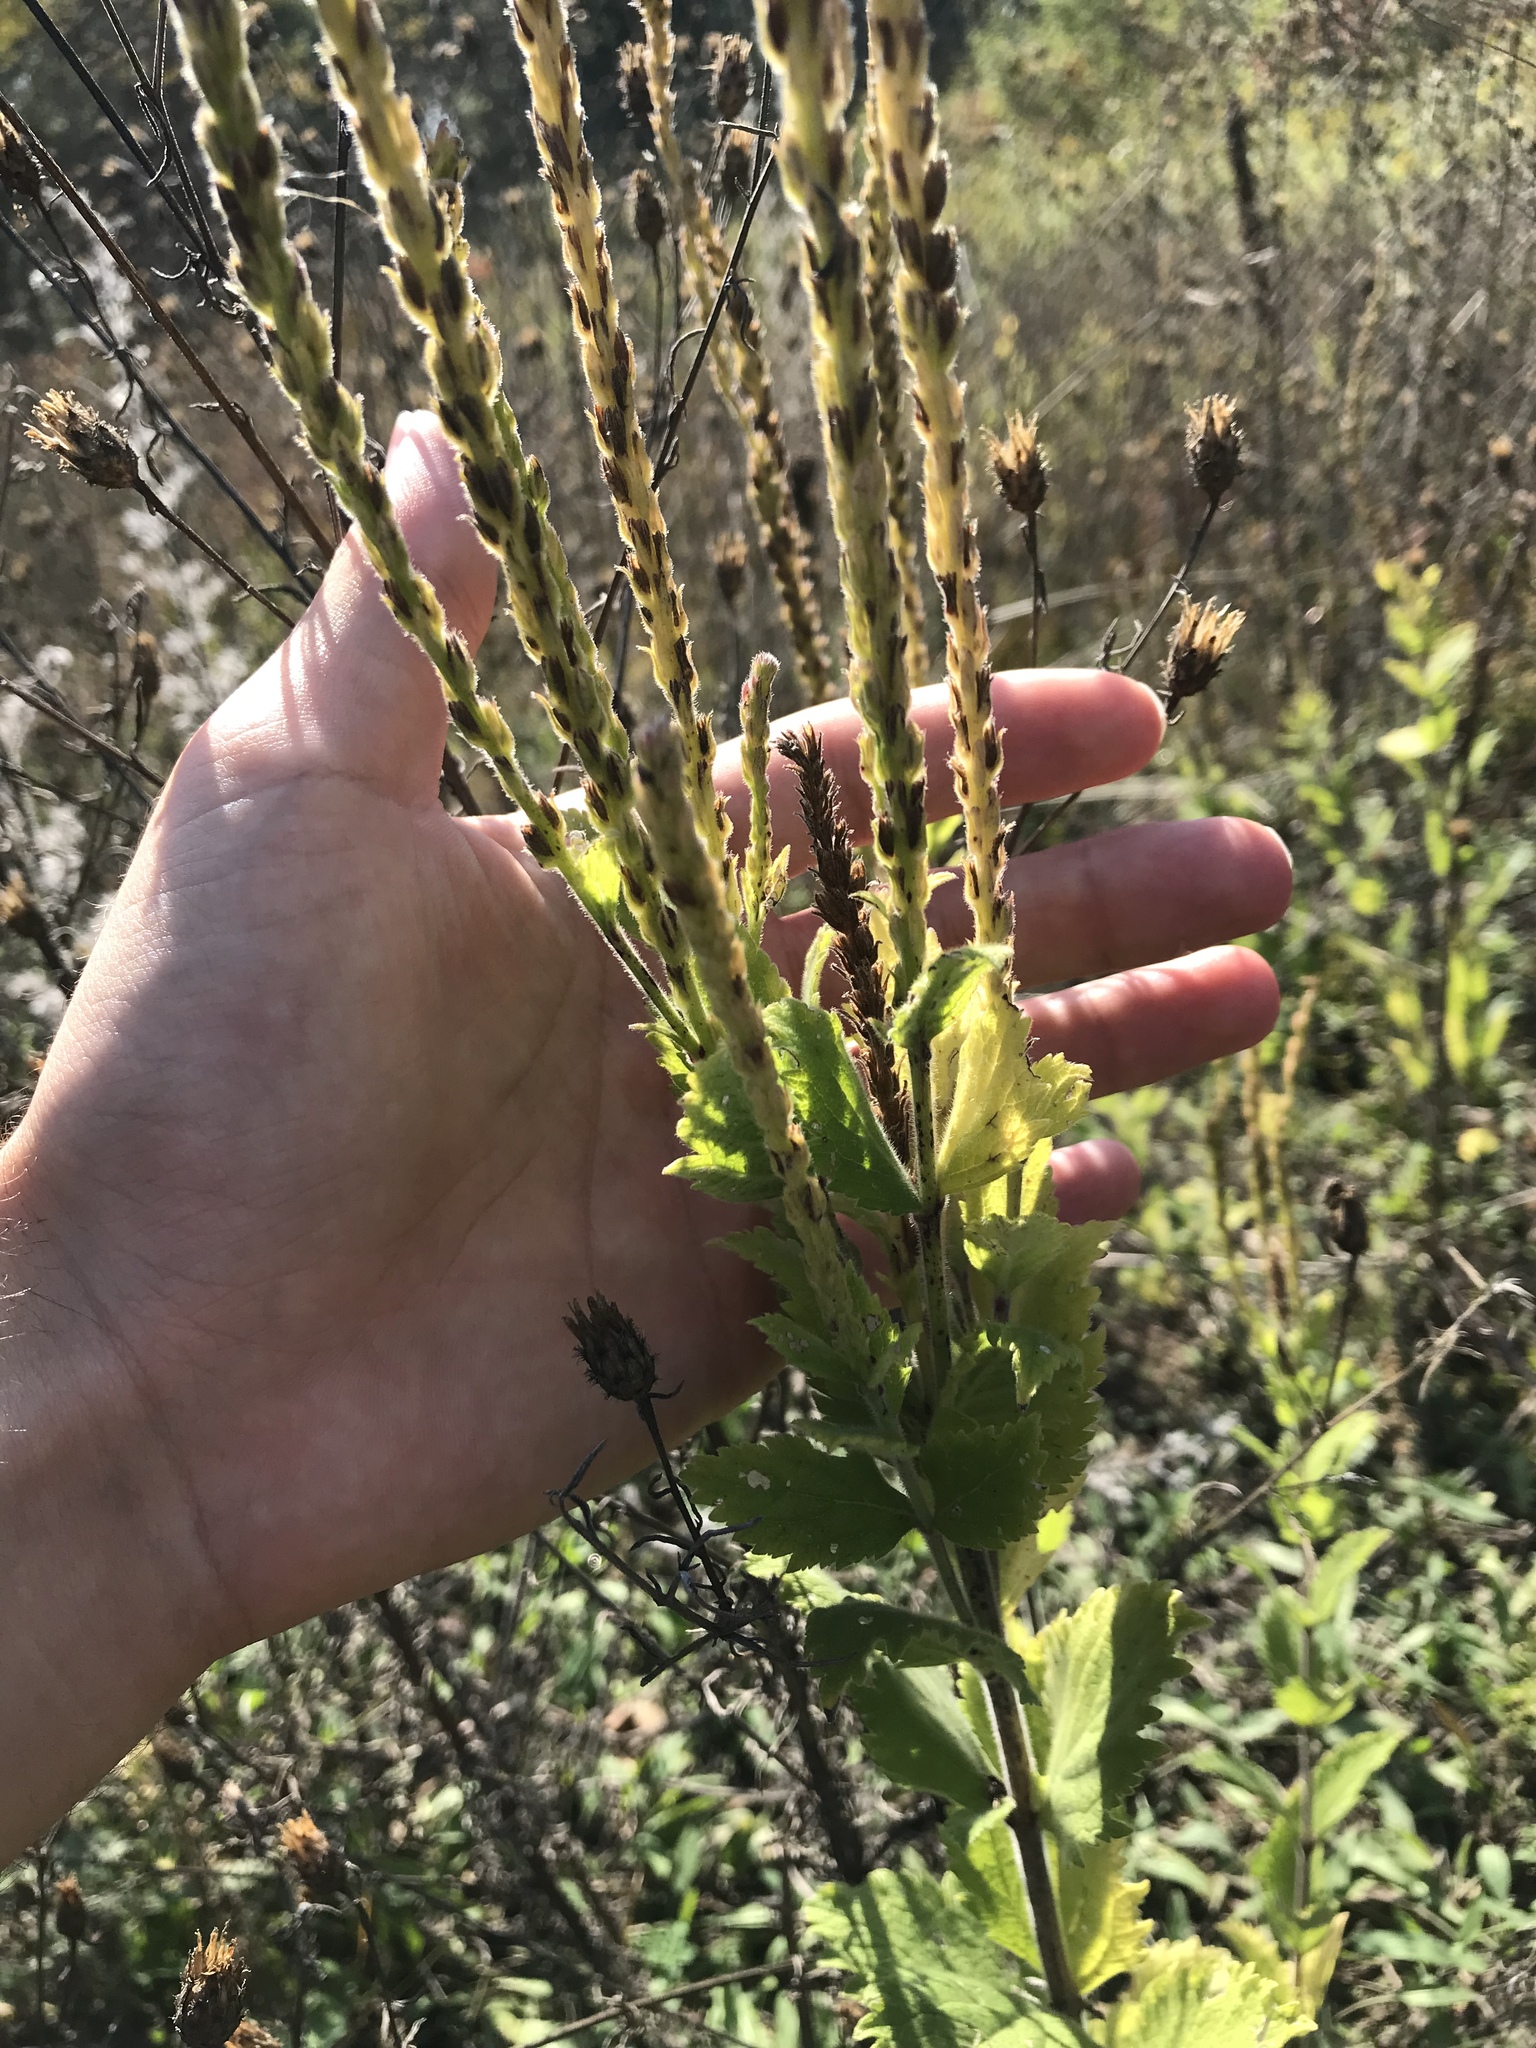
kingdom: Plantae
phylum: Tracheophyta
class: Magnoliopsida
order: Lamiales
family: Verbenaceae
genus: Verbena
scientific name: Verbena stricta
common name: Hoary vervain
